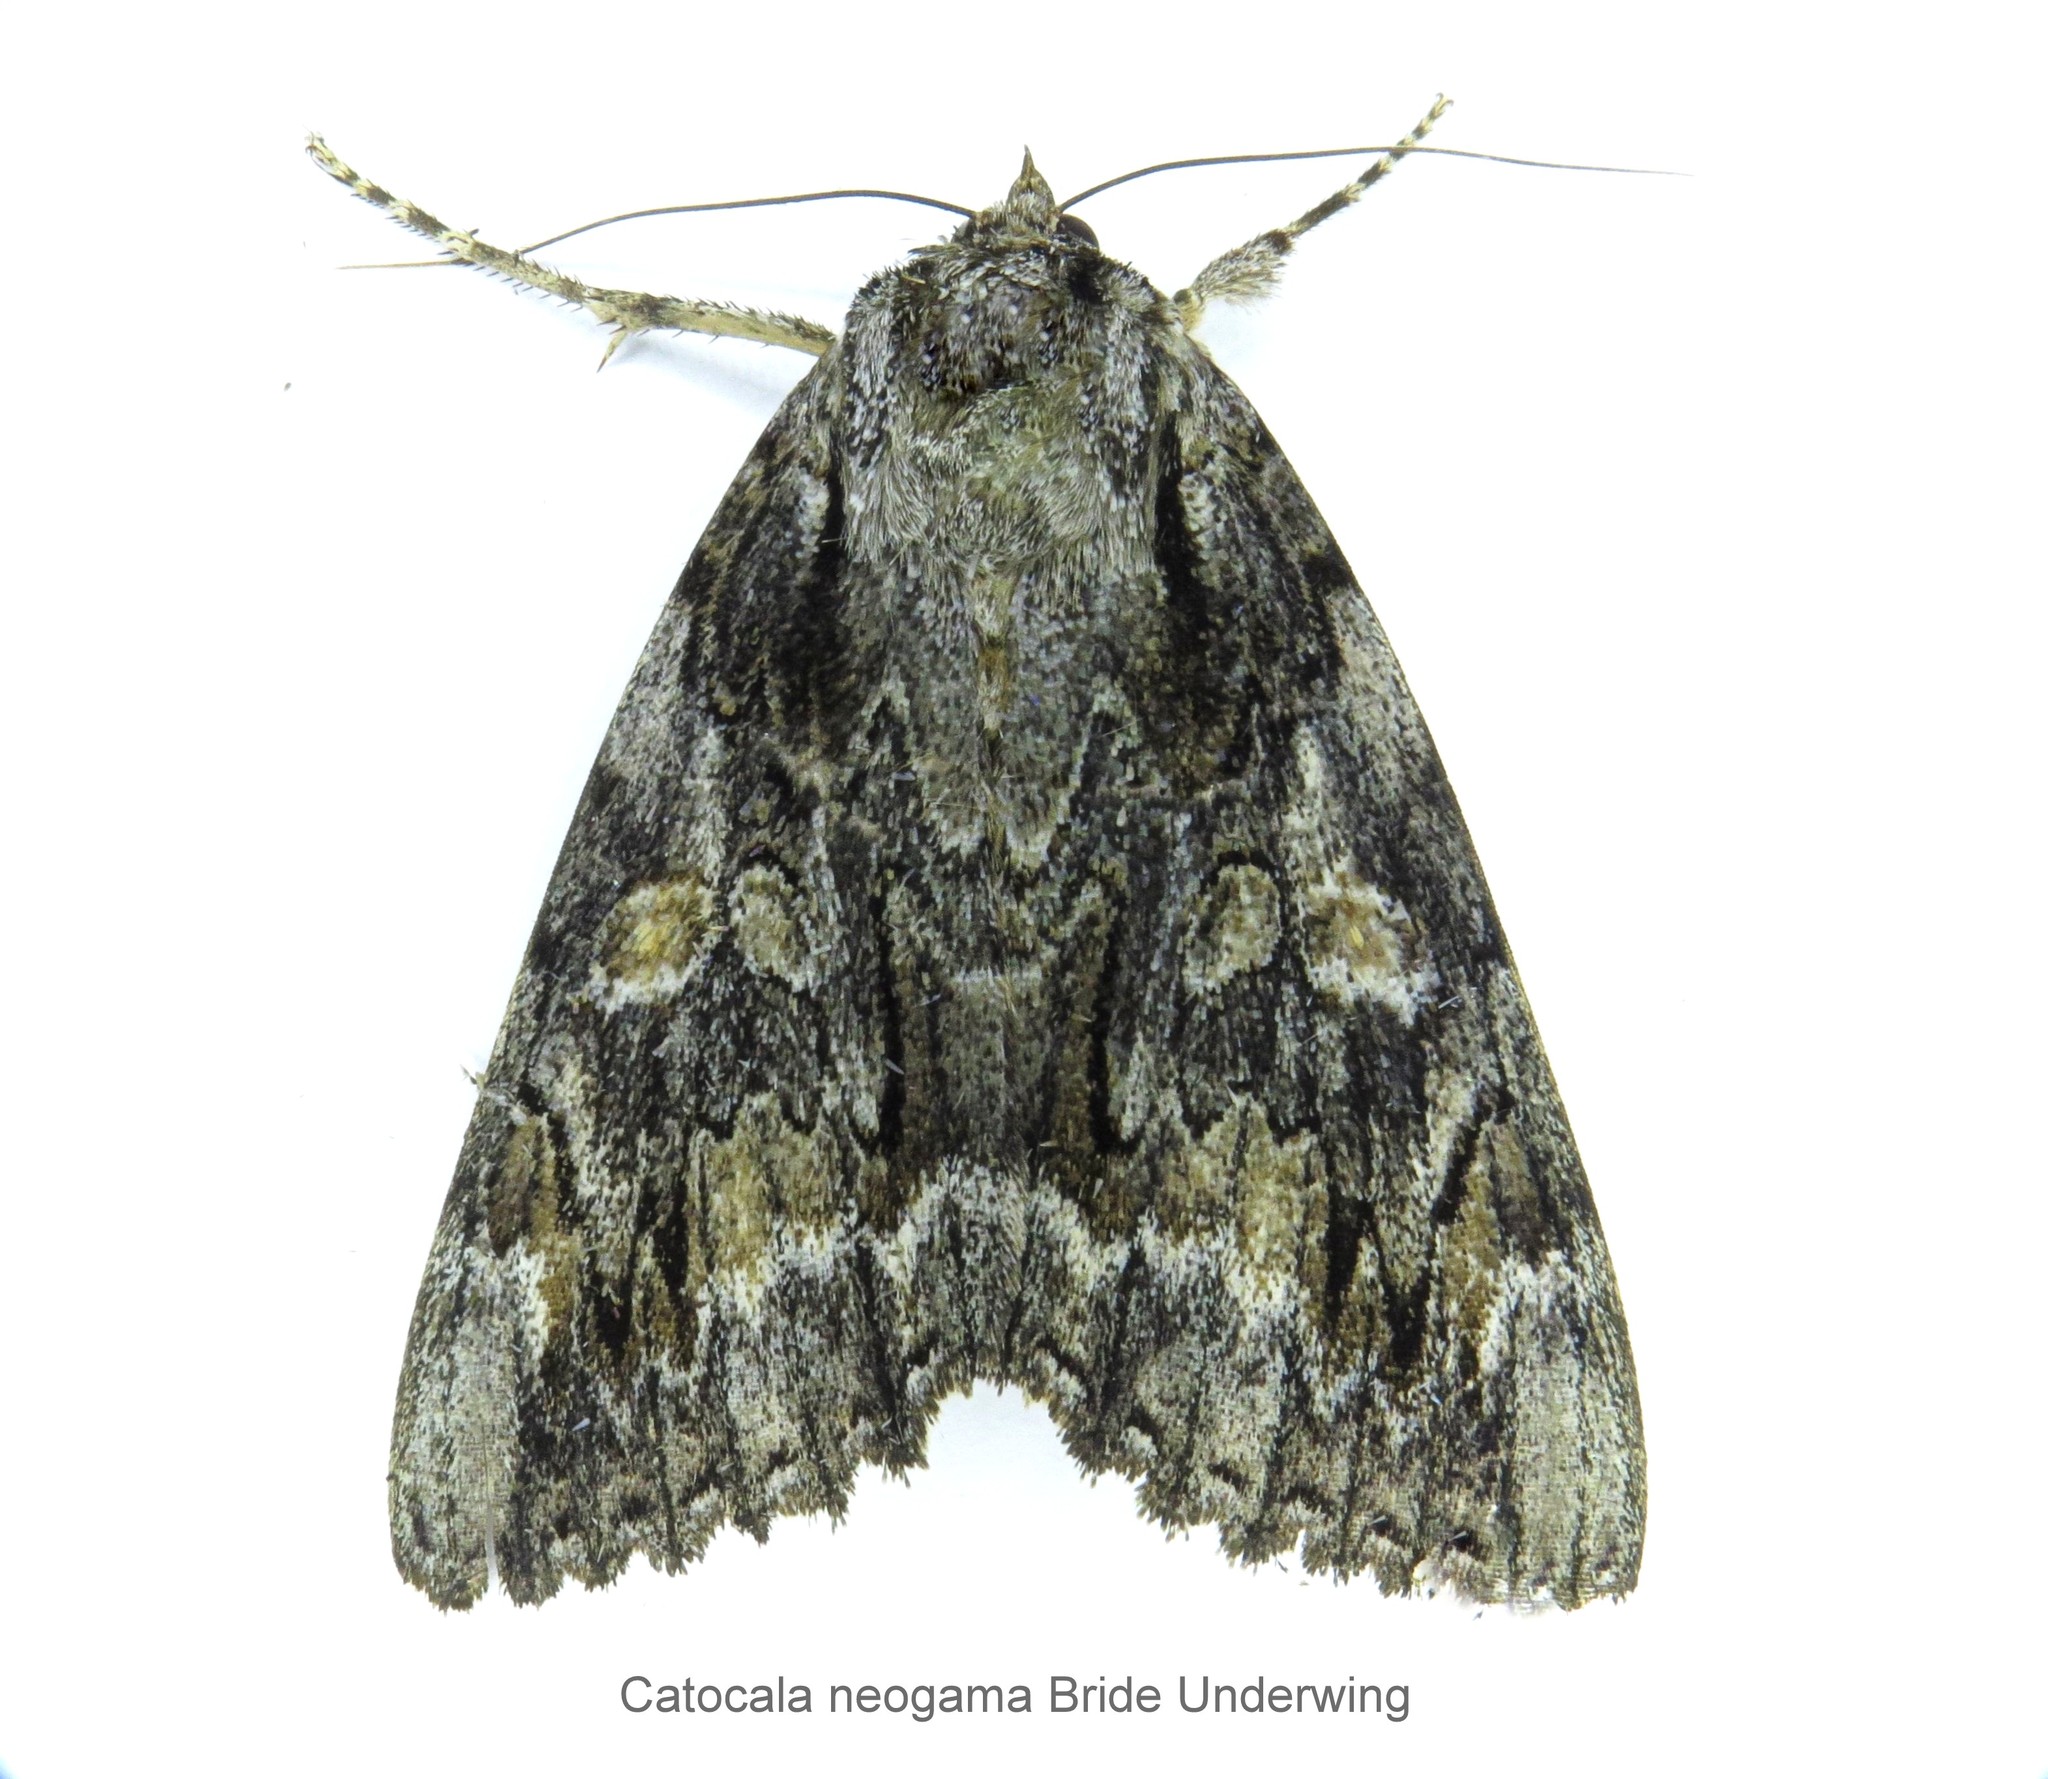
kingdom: Animalia
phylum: Arthropoda
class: Insecta
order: Lepidoptera
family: Erebidae
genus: Catocala
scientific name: Catocala neogama
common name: Bride underwing
